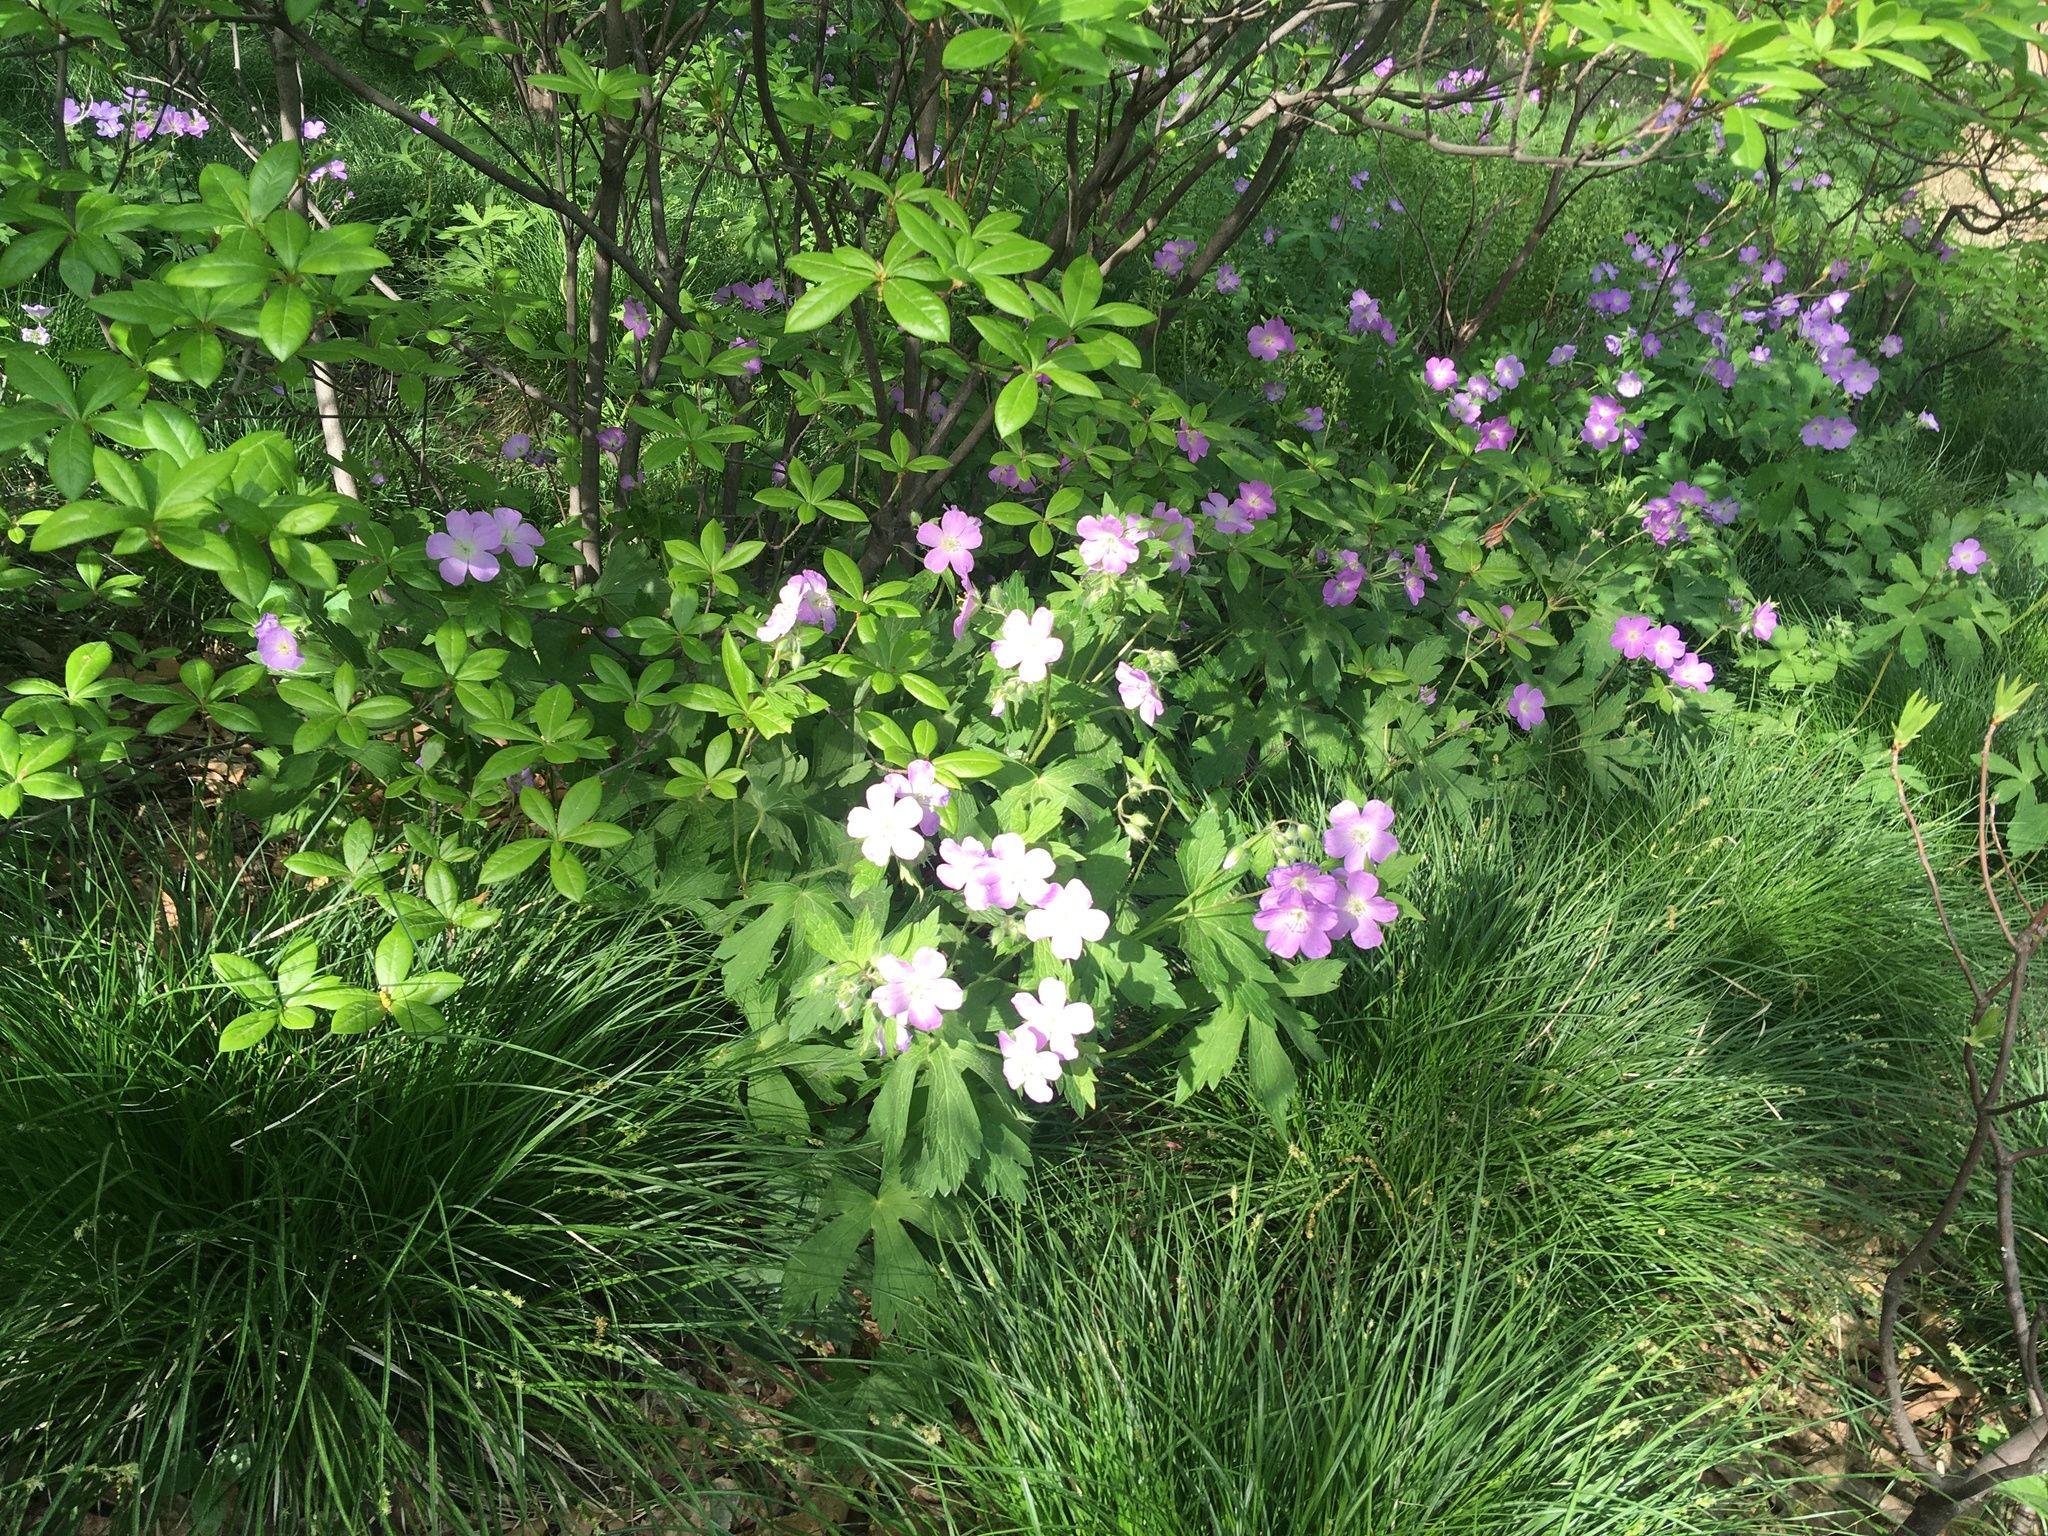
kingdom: Plantae
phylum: Tracheophyta
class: Magnoliopsida
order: Geraniales
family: Geraniaceae
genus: Geranium
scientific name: Geranium maculatum
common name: Spotted geranium
